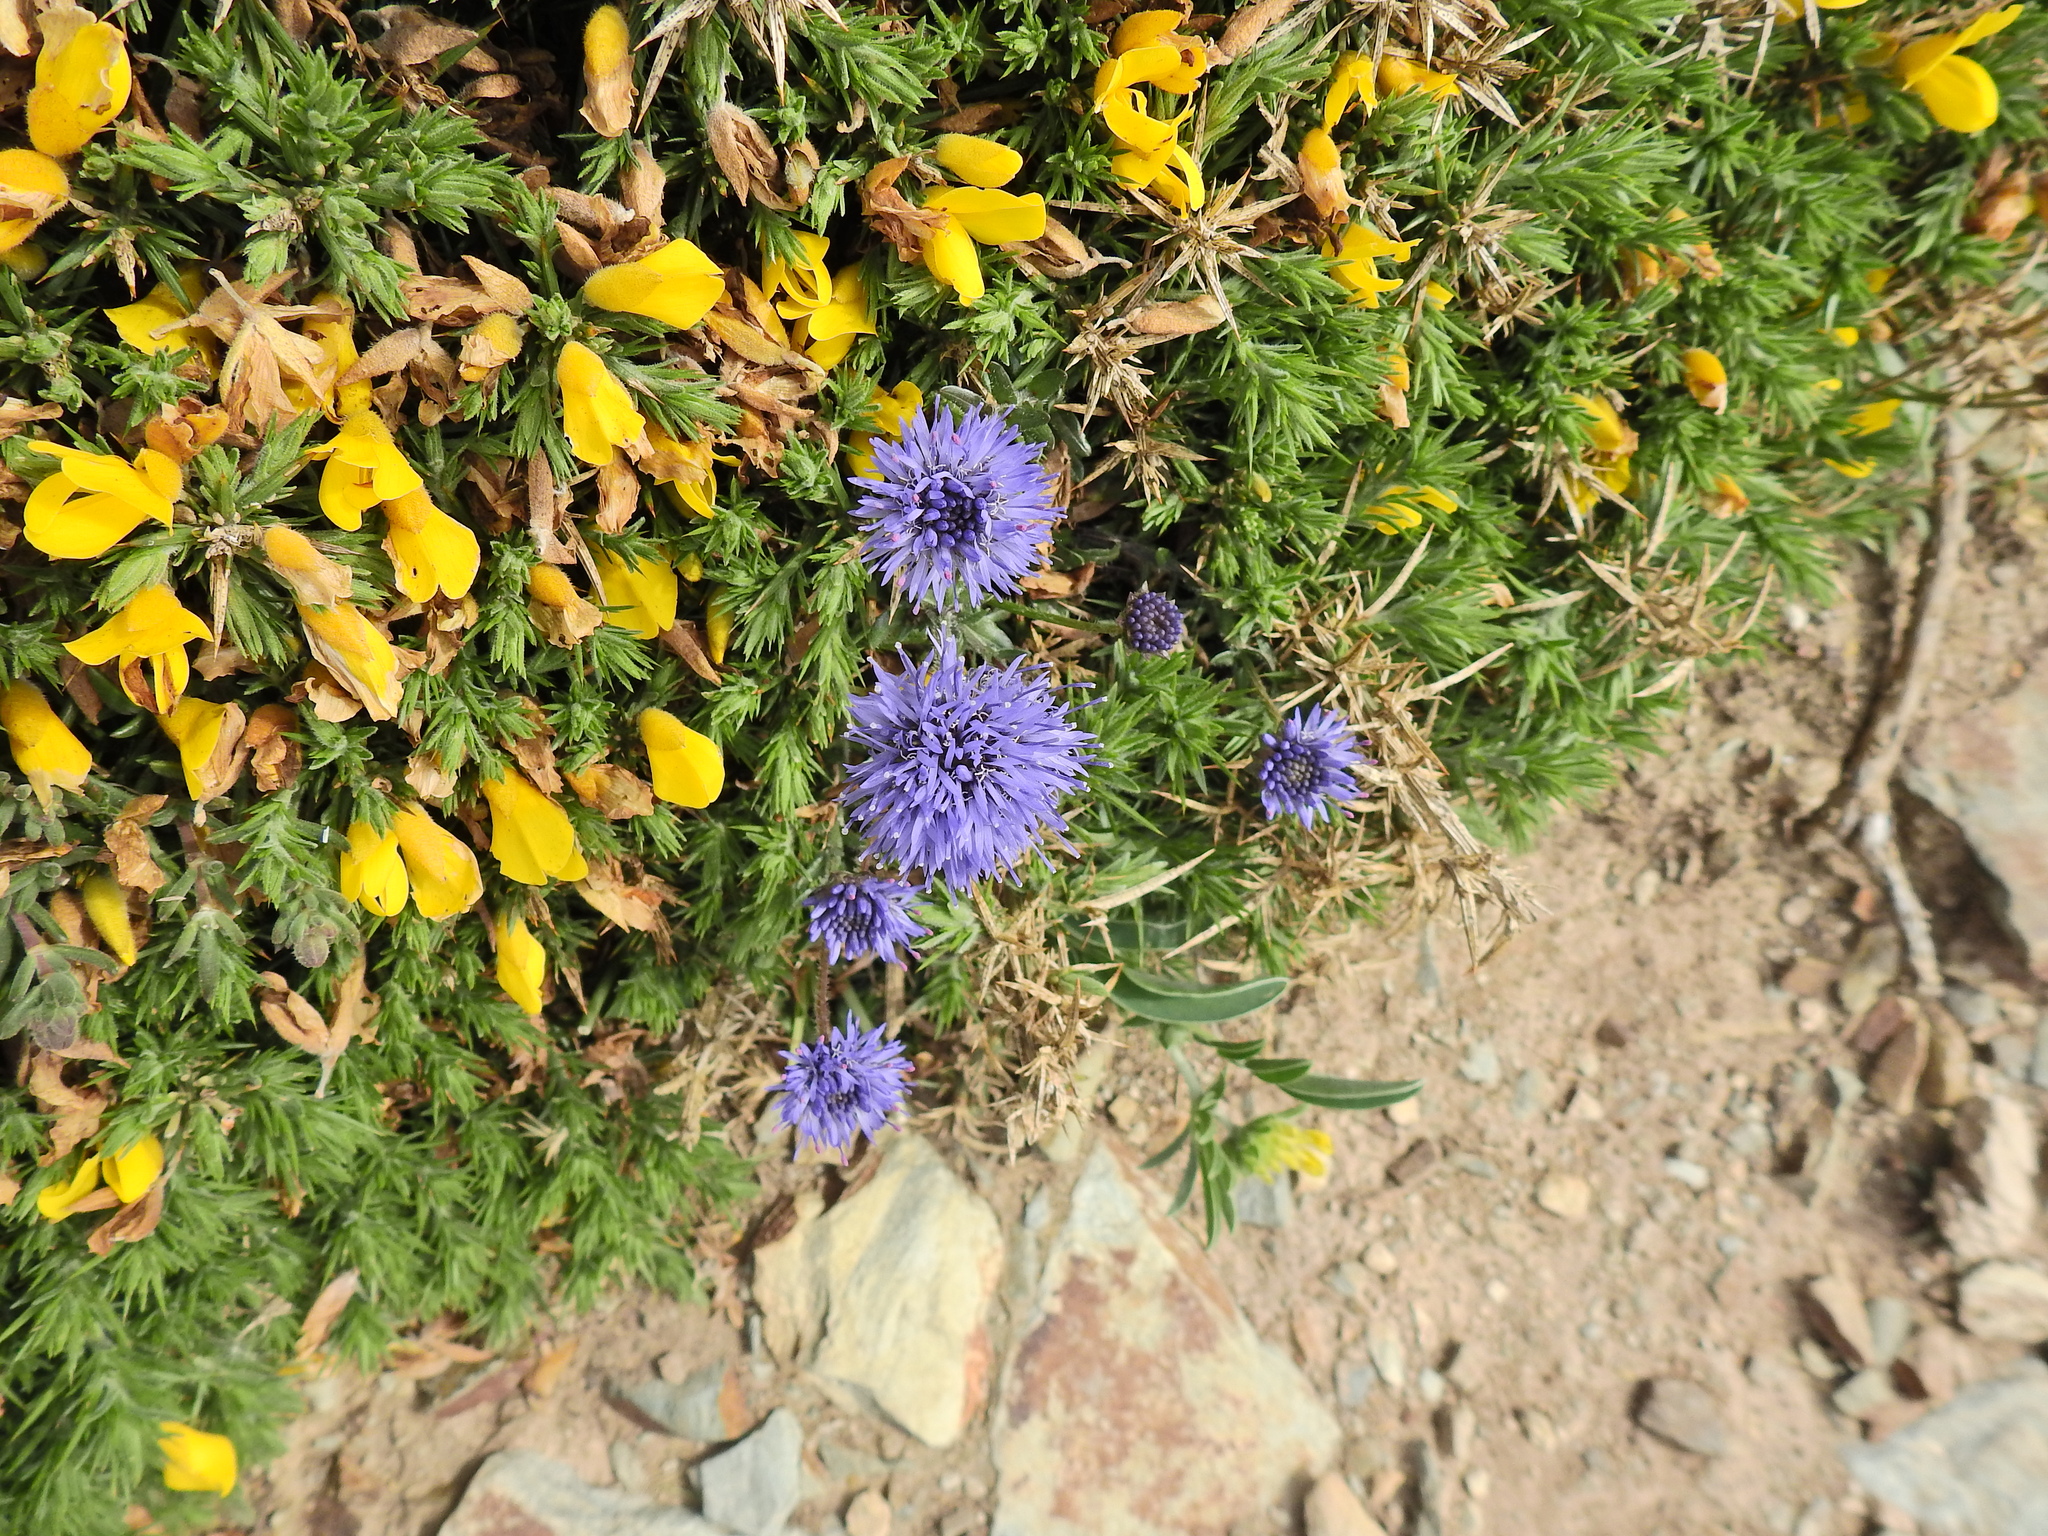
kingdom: Plantae
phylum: Tracheophyta
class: Magnoliopsida
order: Asterales
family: Campanulaceae
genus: Jasione
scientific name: Jasione montana
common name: Sheep's-bit
